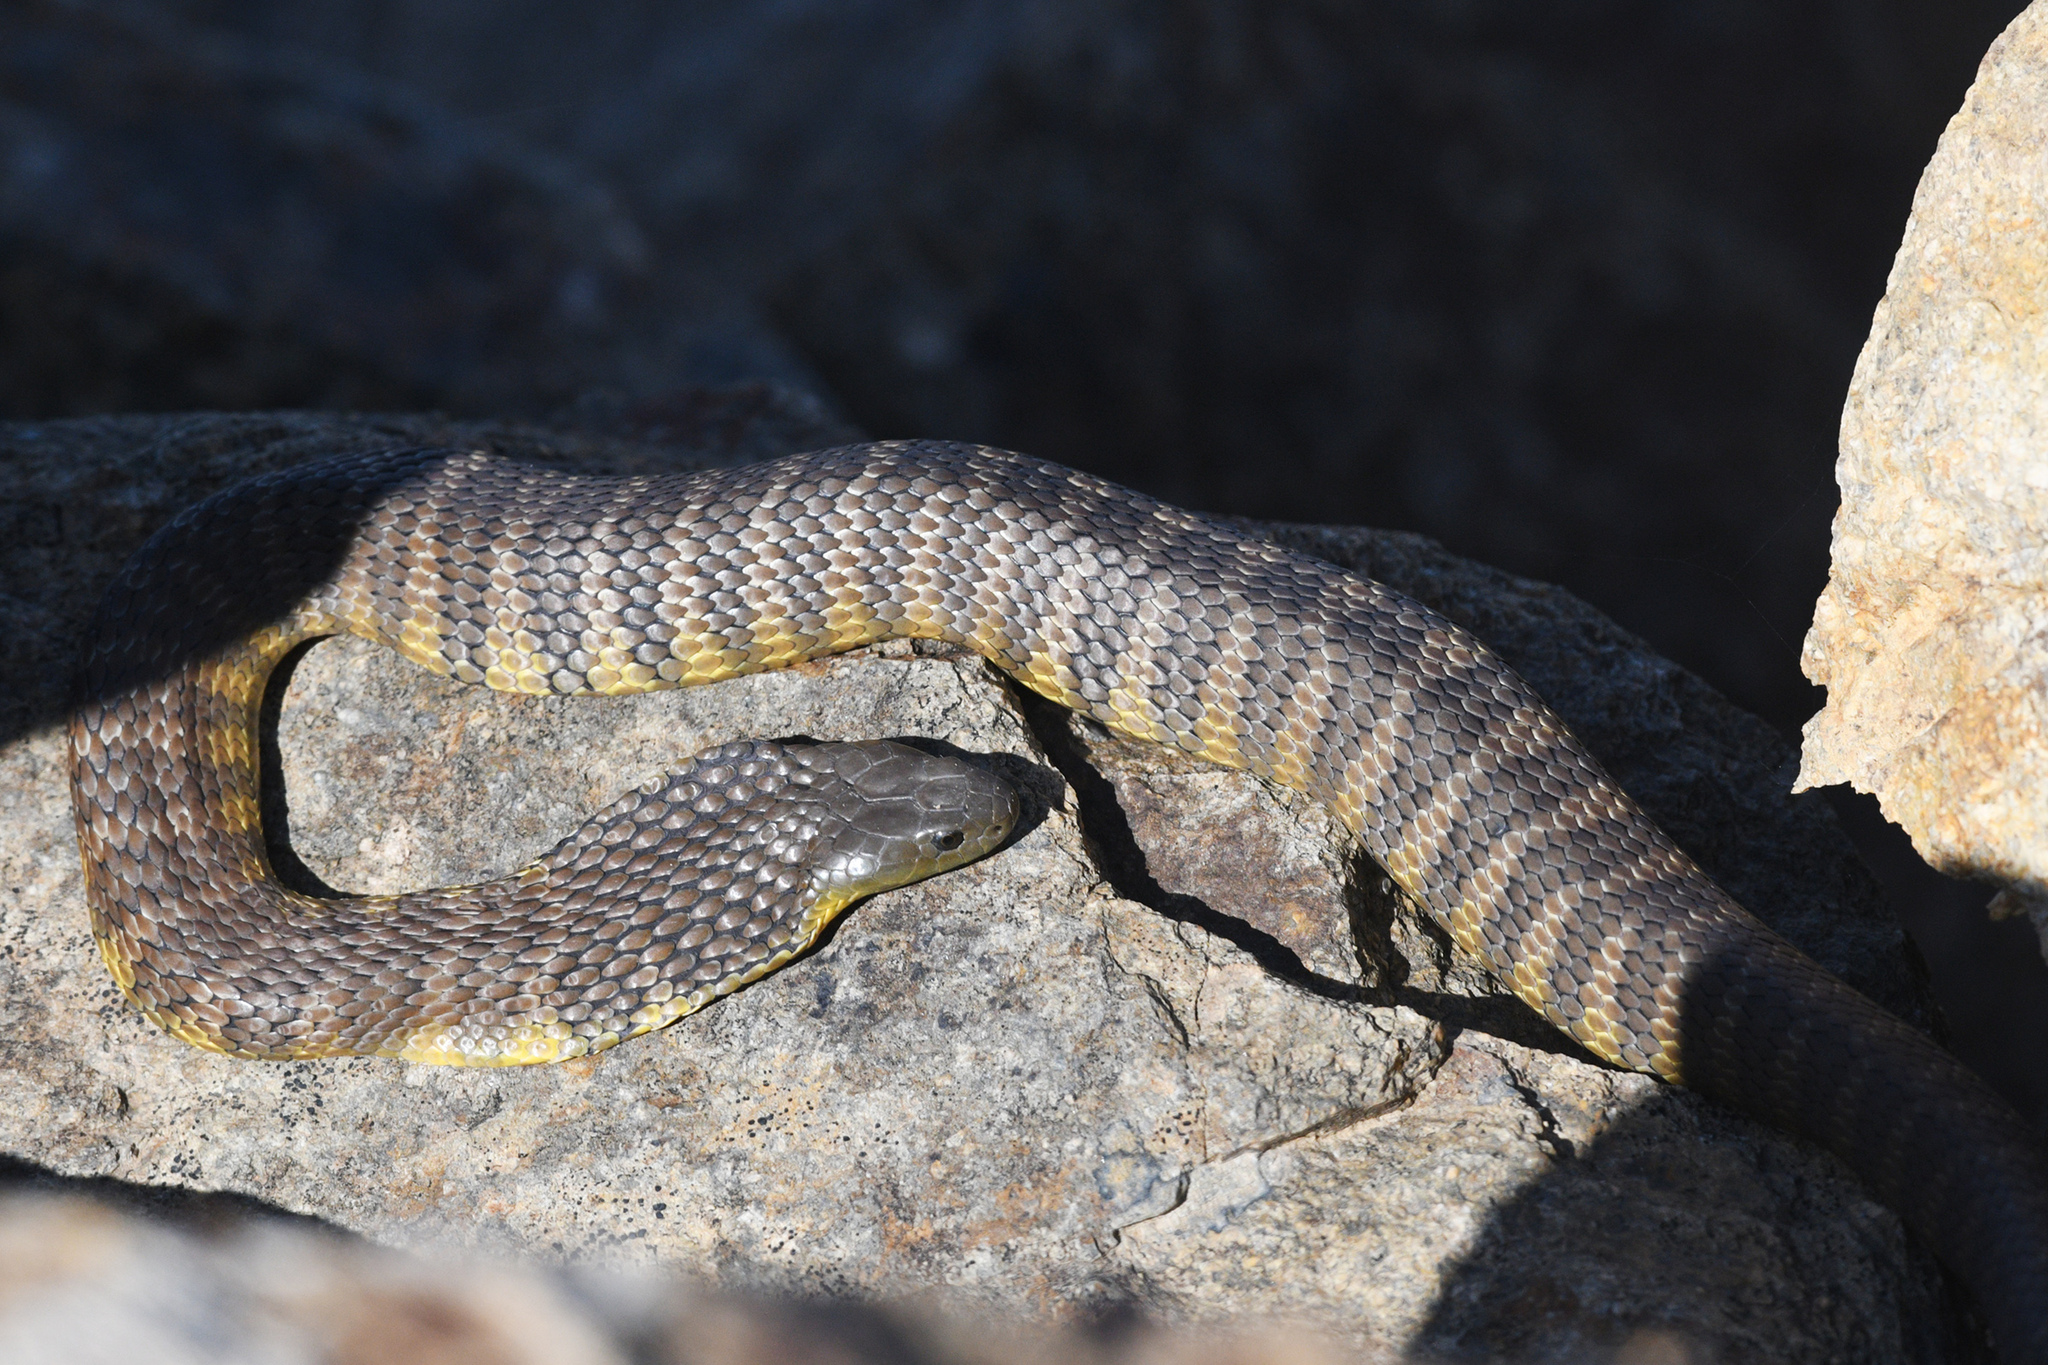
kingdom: Animalia
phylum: Chordata
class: Squamata
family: Elapidae
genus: Notechis
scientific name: Notechis scutatus
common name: Mainland tiger snake
